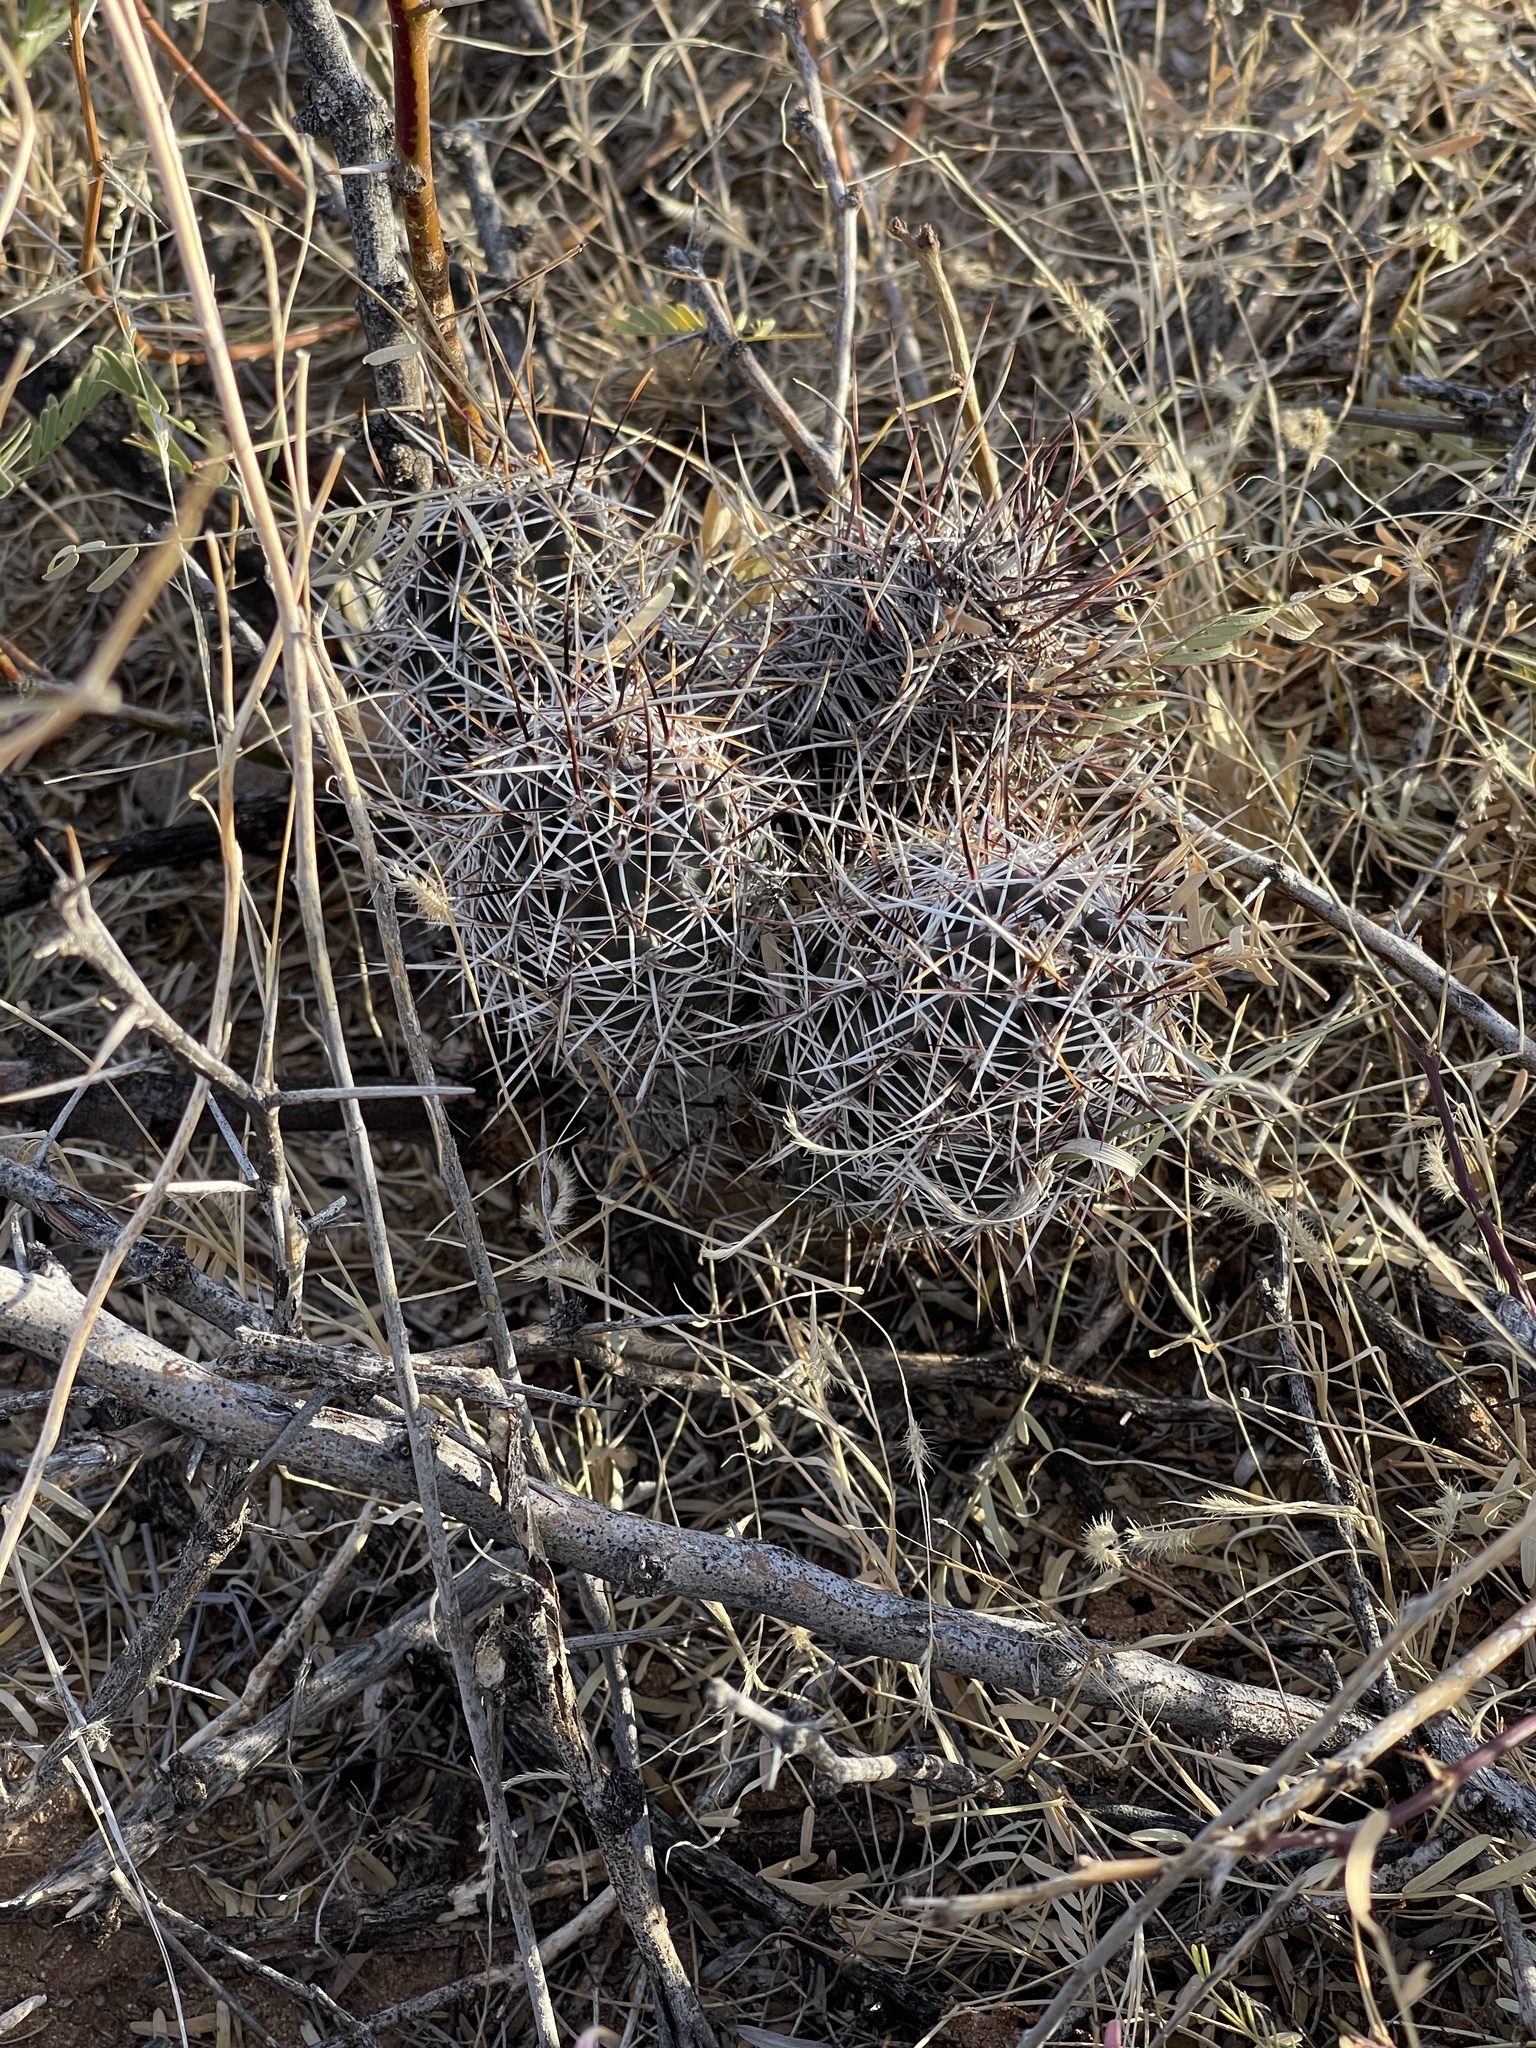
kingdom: Plantae
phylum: Tracheophyta
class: Magnoliopsida
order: Caryophyllales
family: Cactaceae
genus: Echinocereus
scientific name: Echinocereus fendleri
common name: Fendler's hedgehog cactus
